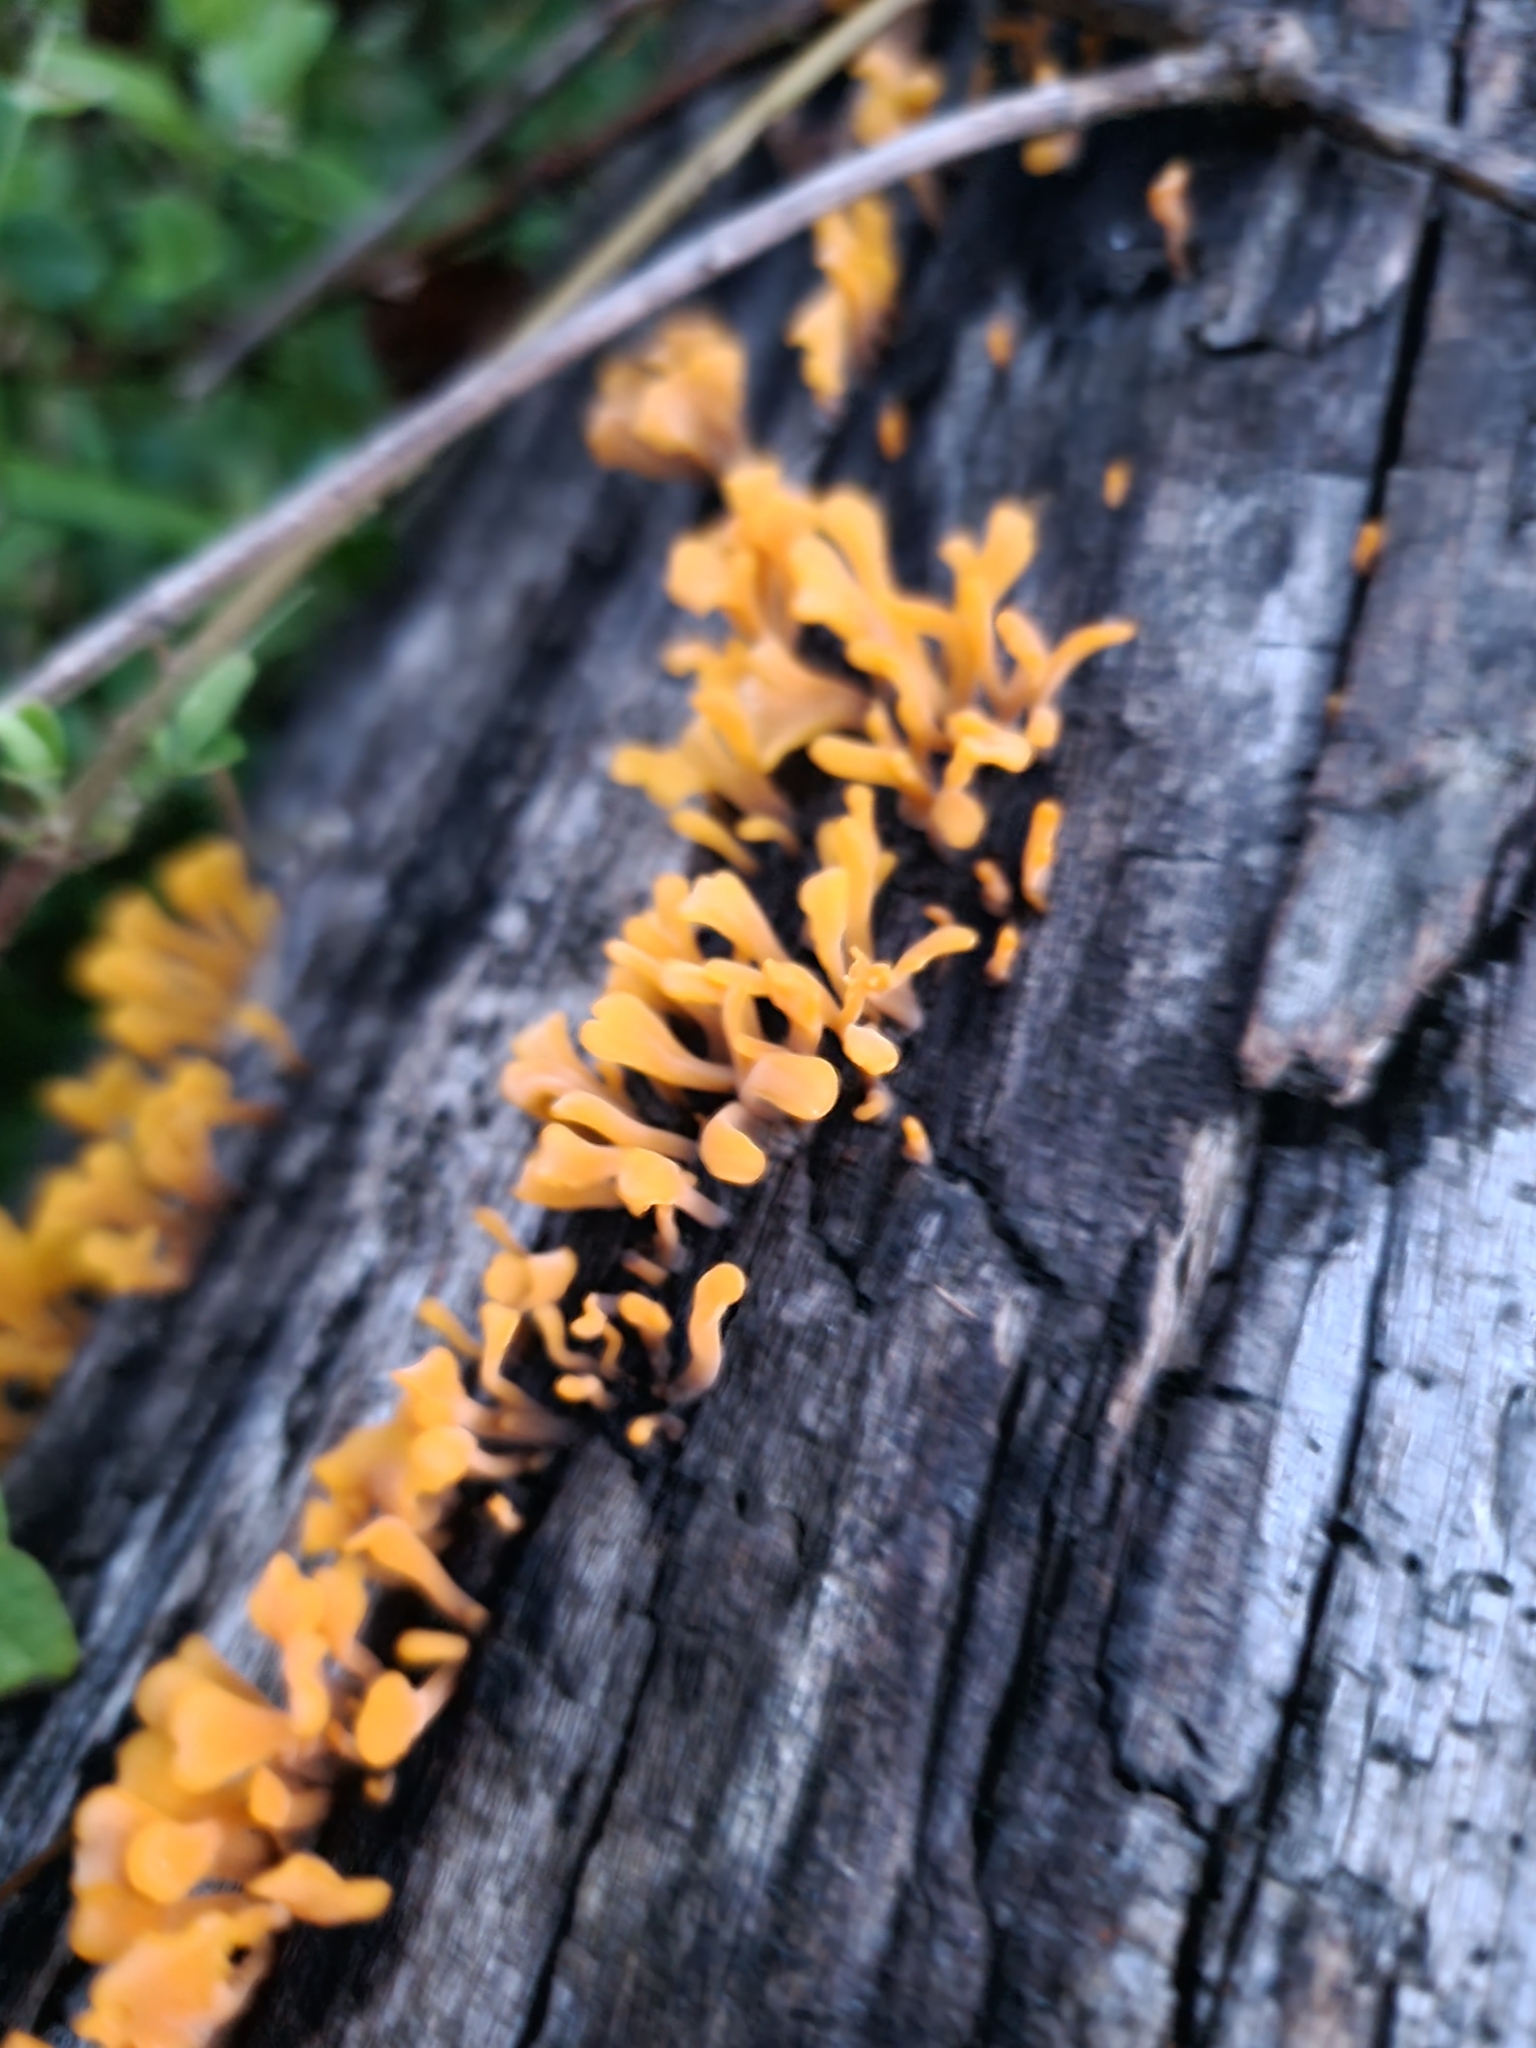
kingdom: Fungi
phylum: Basidiomycota
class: Dacrymycetes
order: Dacrymycetales
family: Dacrymycetaceae
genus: Dacrymyces
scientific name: Dacrymyces spathularius
